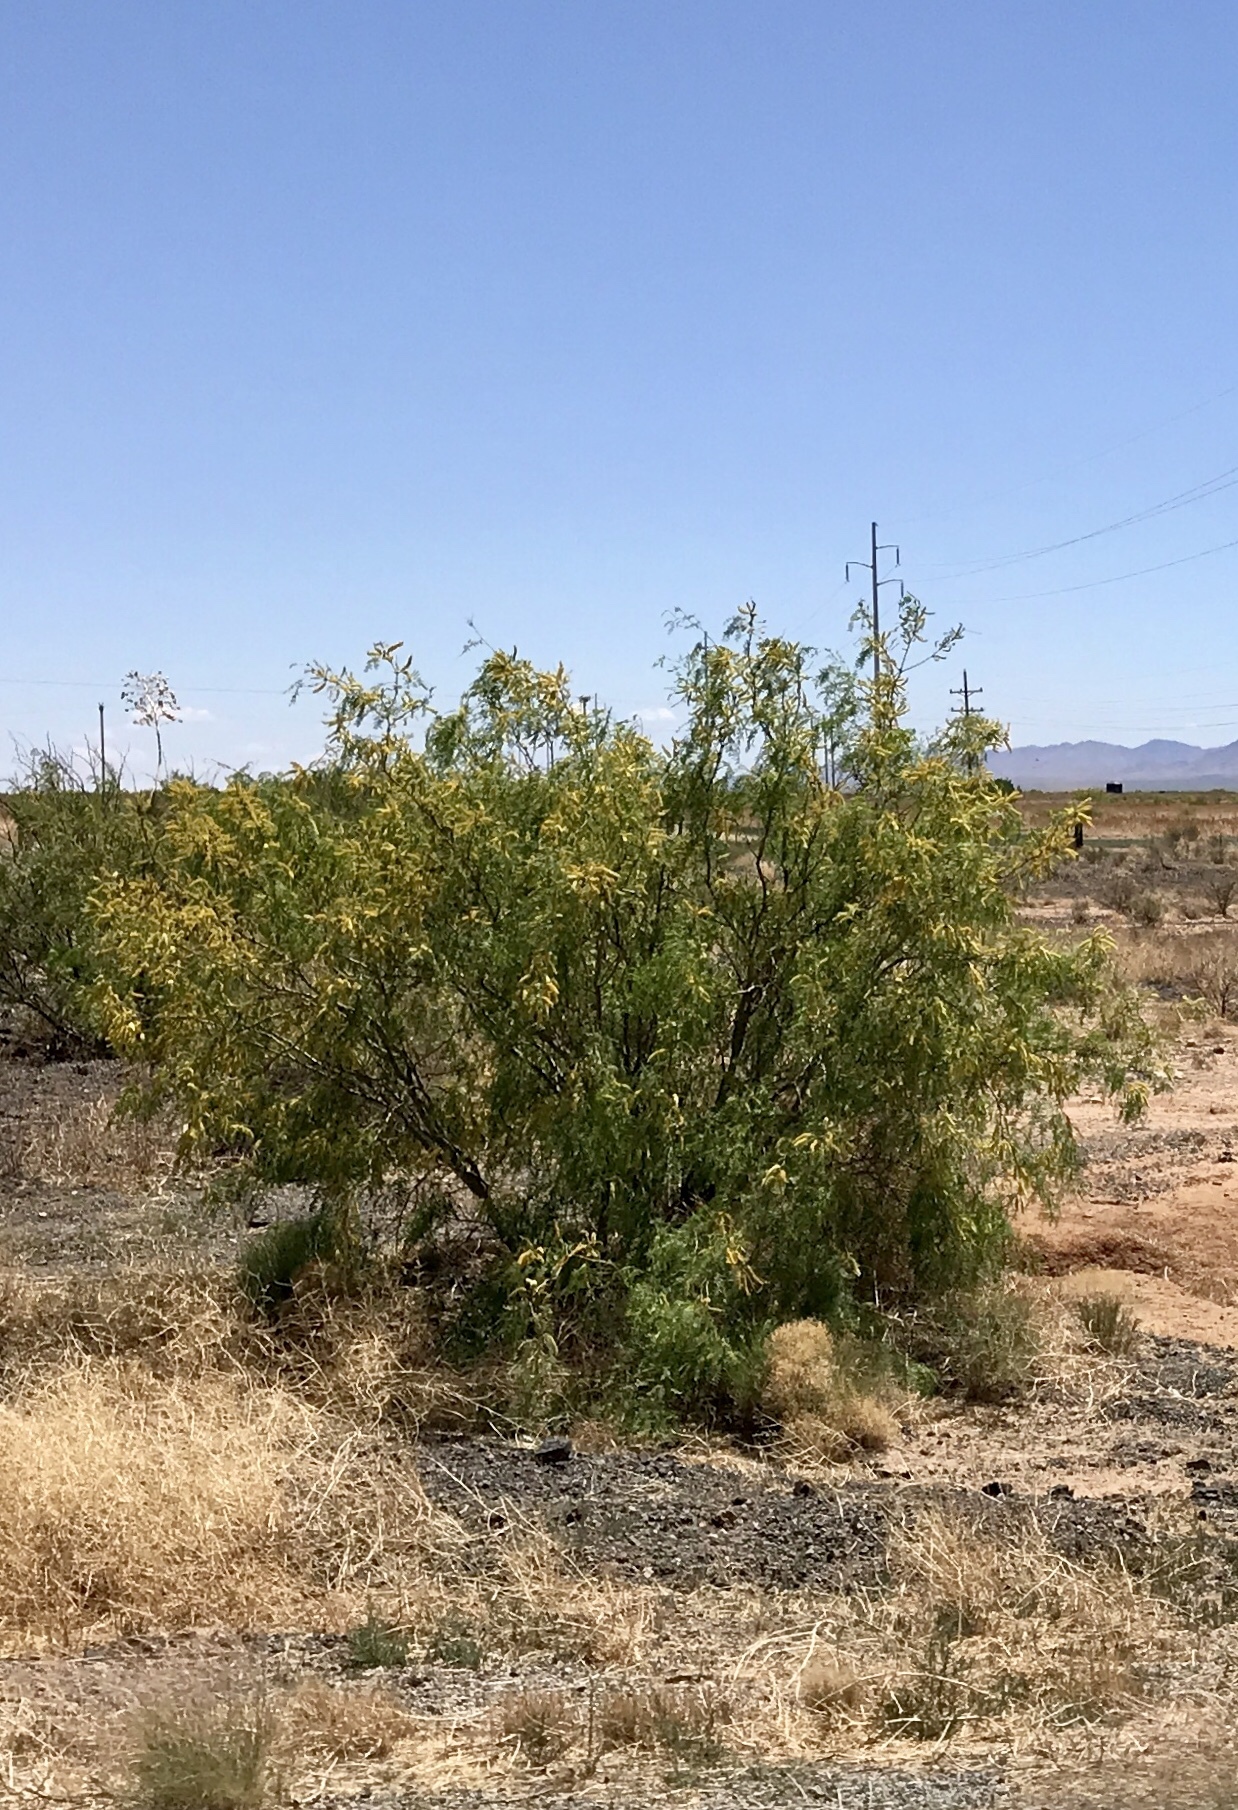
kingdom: Plantae
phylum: Tracheophyta
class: Magnoliopsida
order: Fabales
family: Fabaceae
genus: Prosopis
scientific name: Prosopis glandulosa
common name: Honey mesquite
